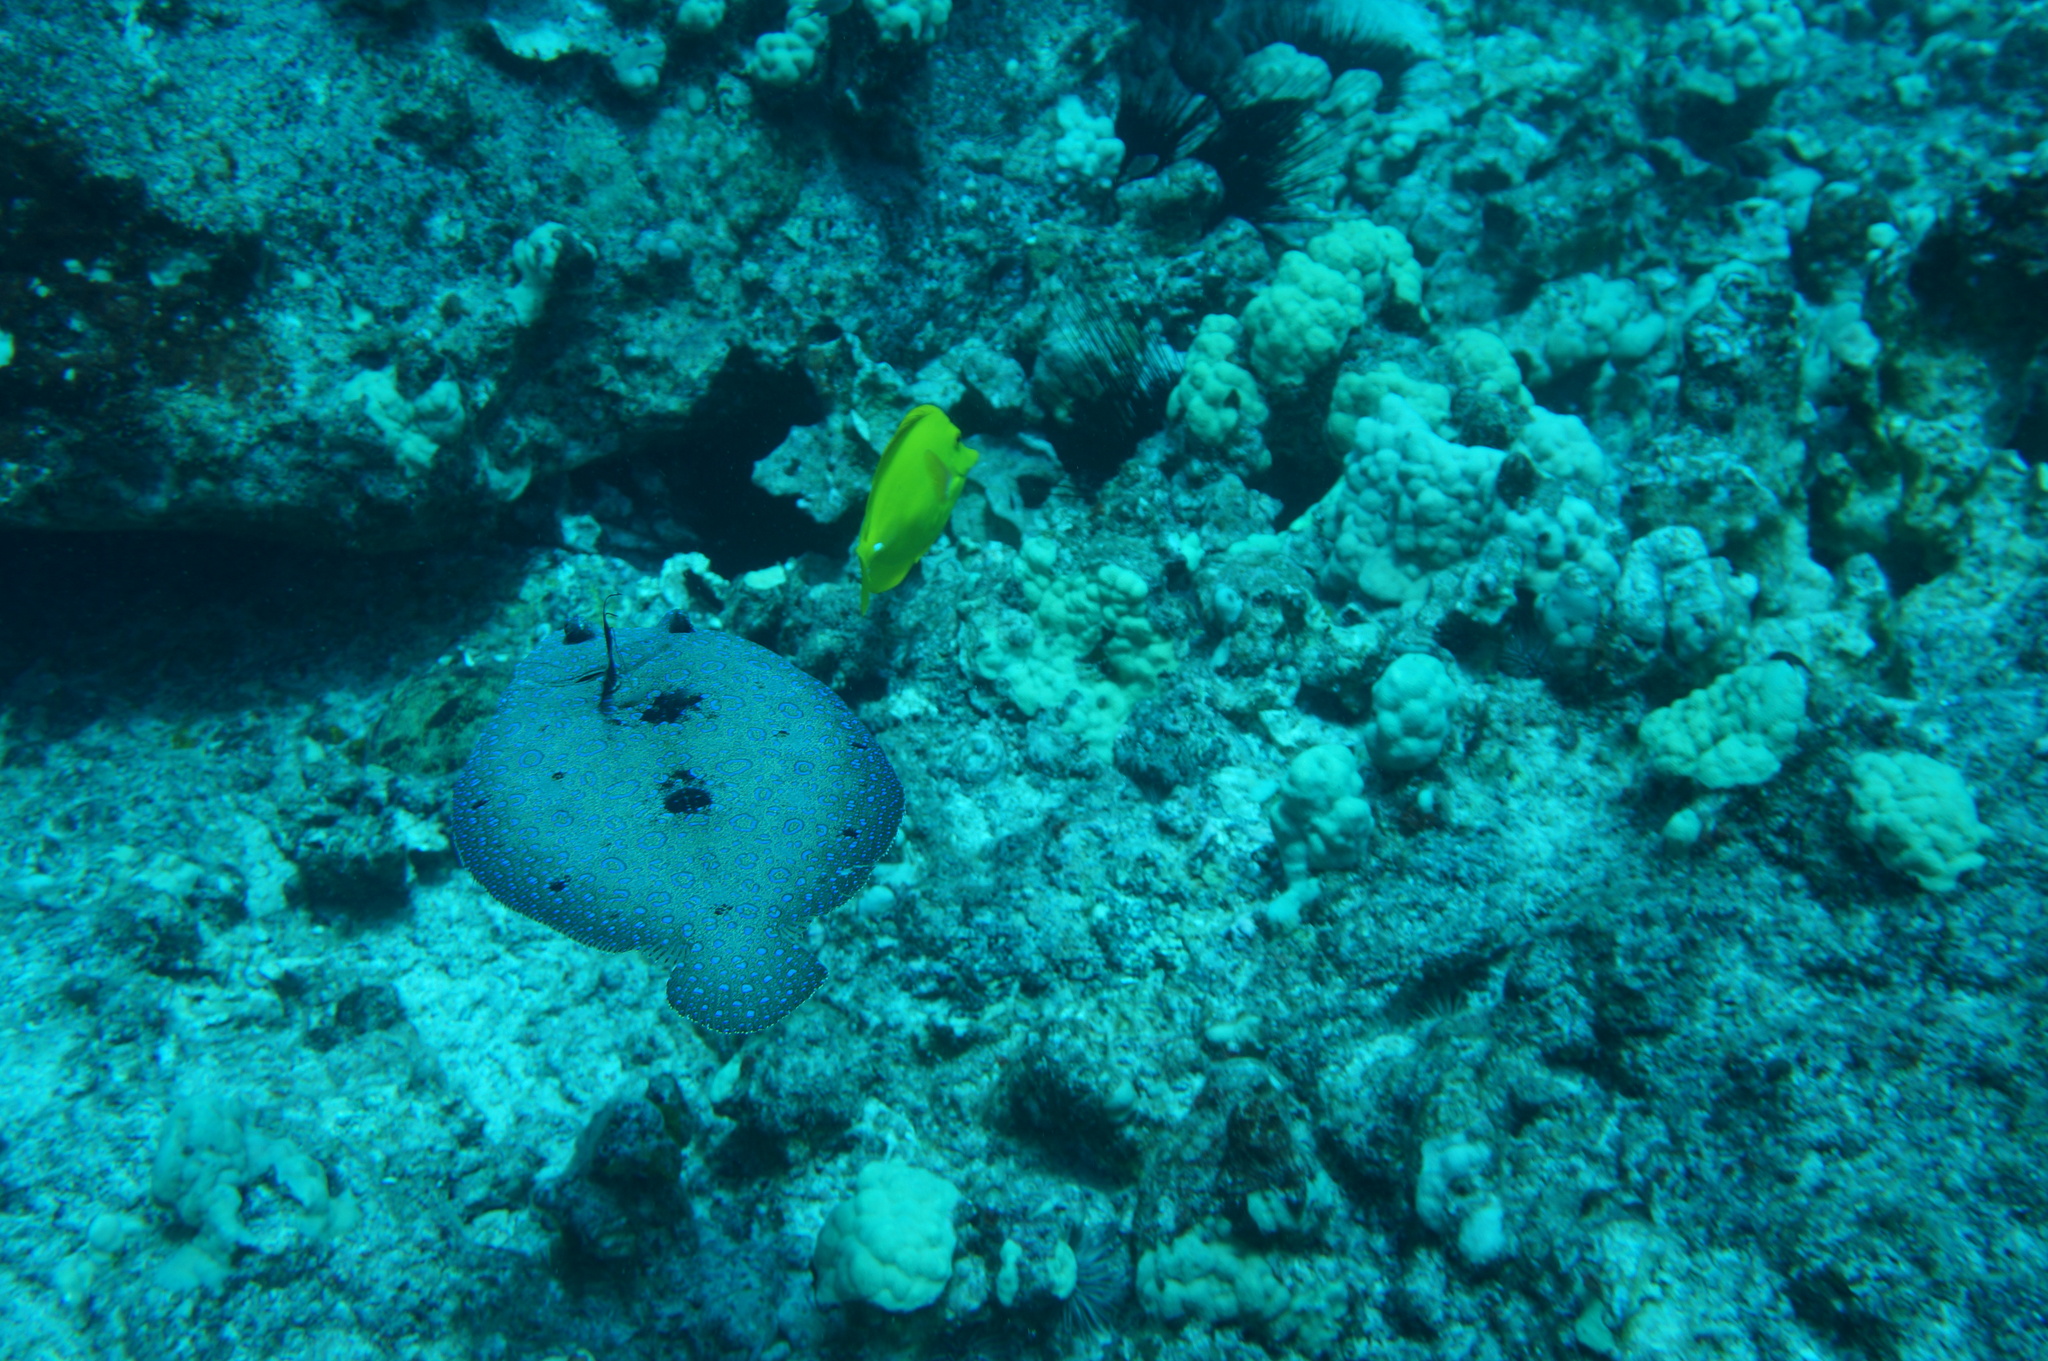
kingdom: Animalia
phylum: Chordata
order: Pleuronectiformes
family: Bothidae
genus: Bothus
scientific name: Bothus mancus
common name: Flowery flounder
